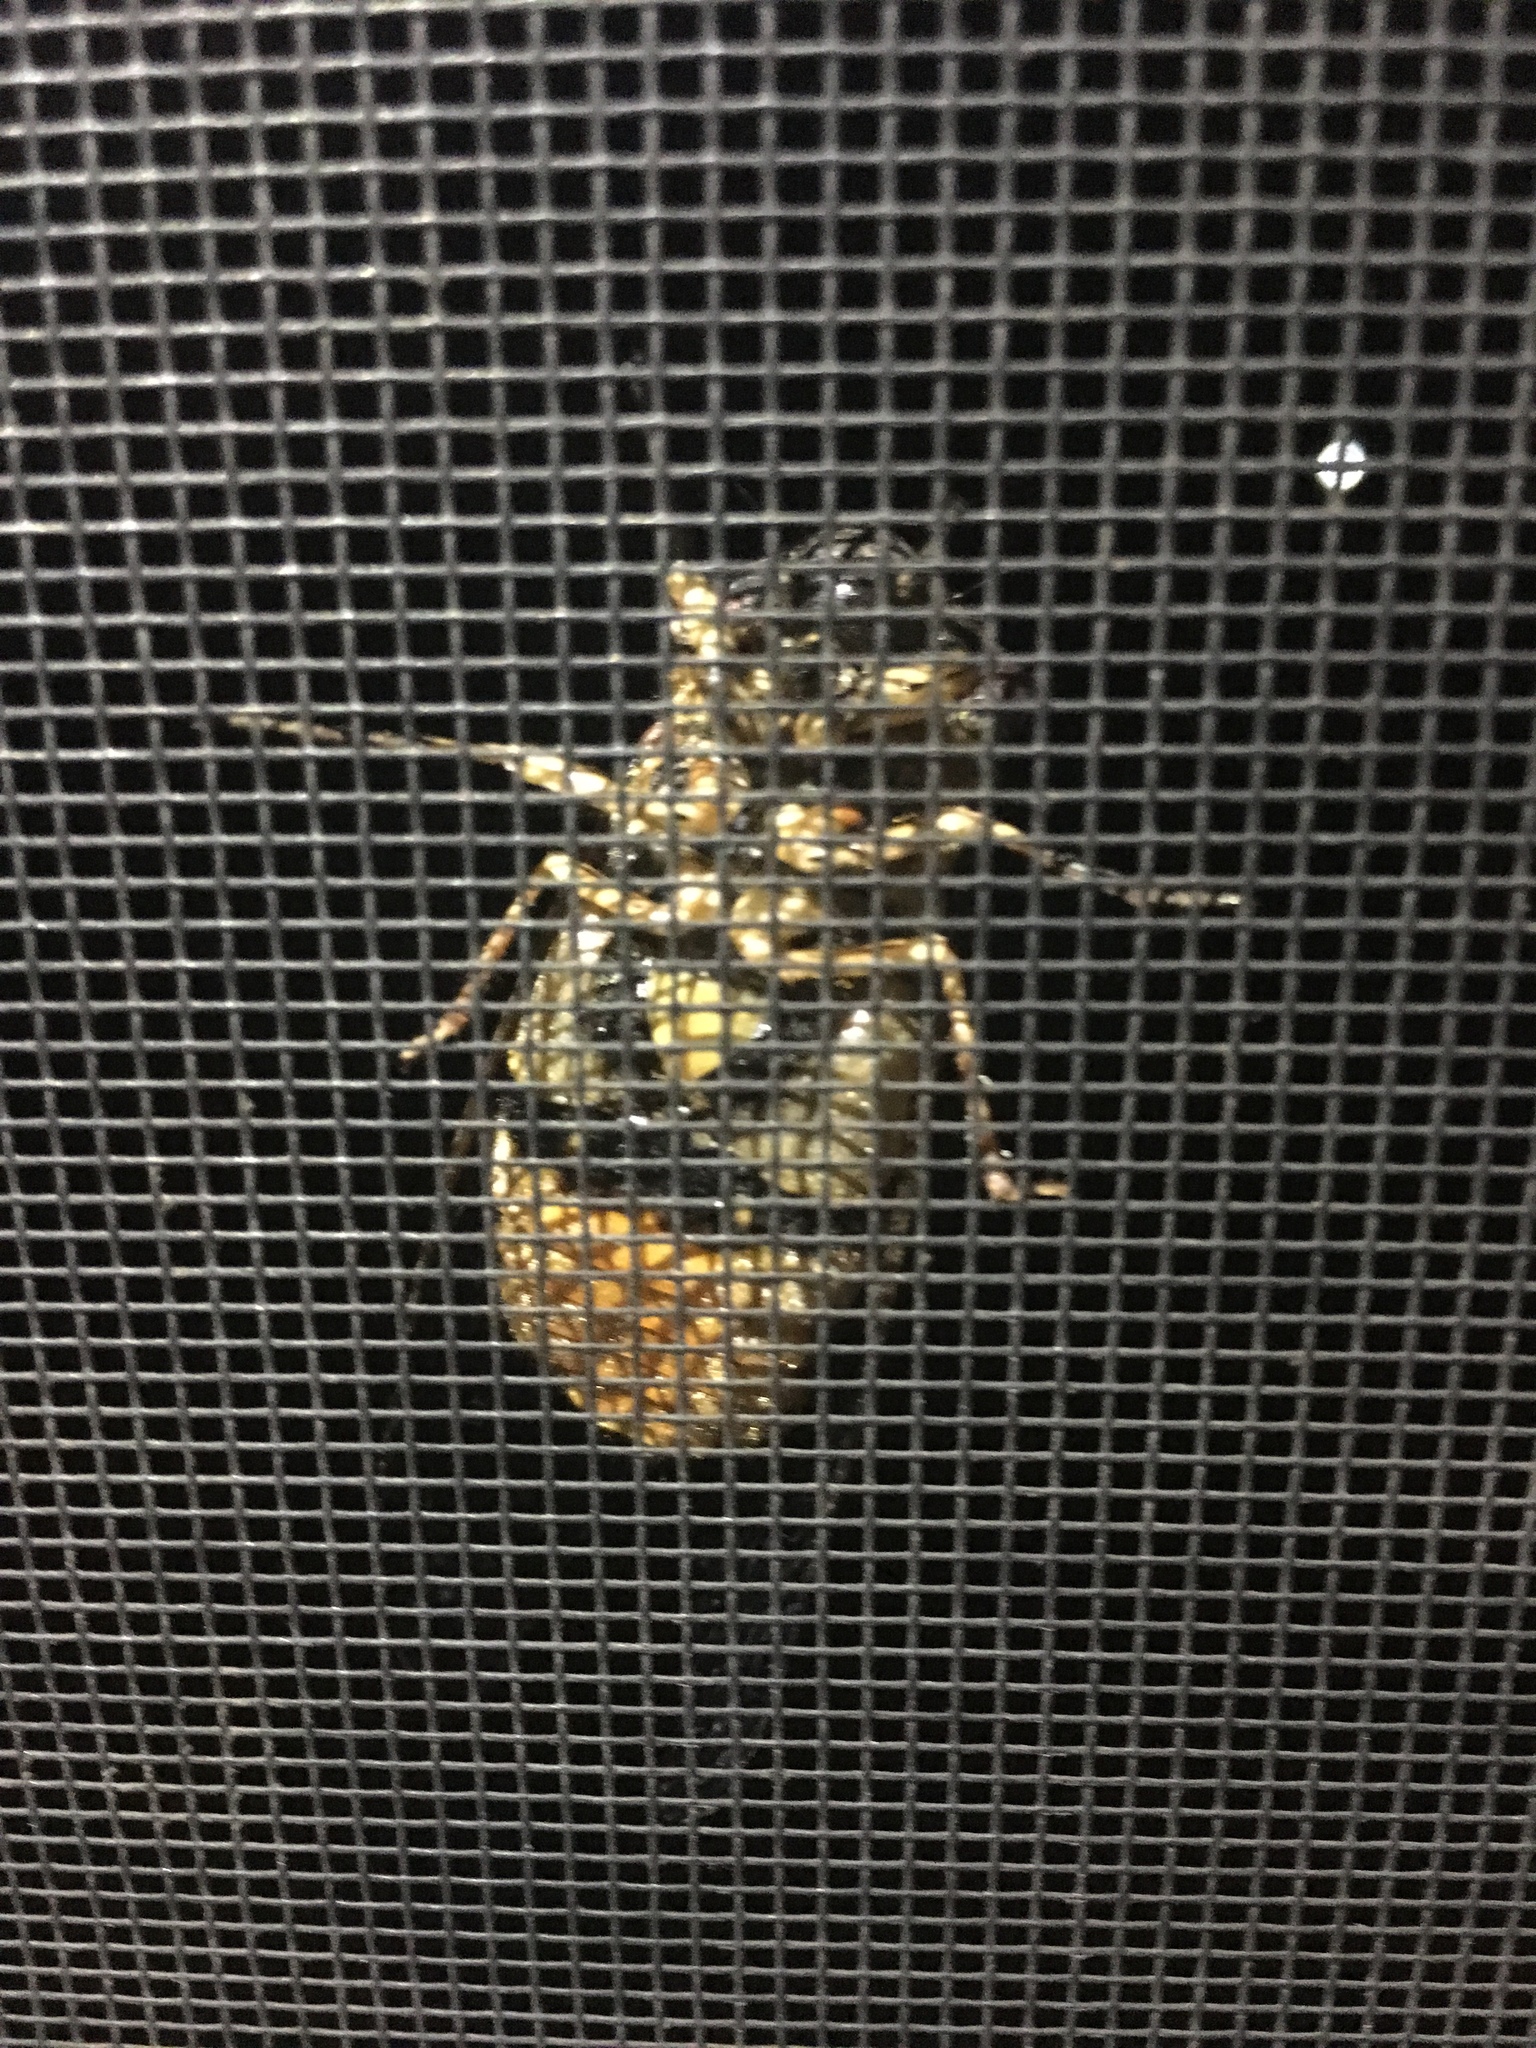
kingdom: Animalia
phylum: Arthropoda
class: Insecta
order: Hemiptera
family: Cicadidae
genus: Psaltoda
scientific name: Psaltoda flavescens
